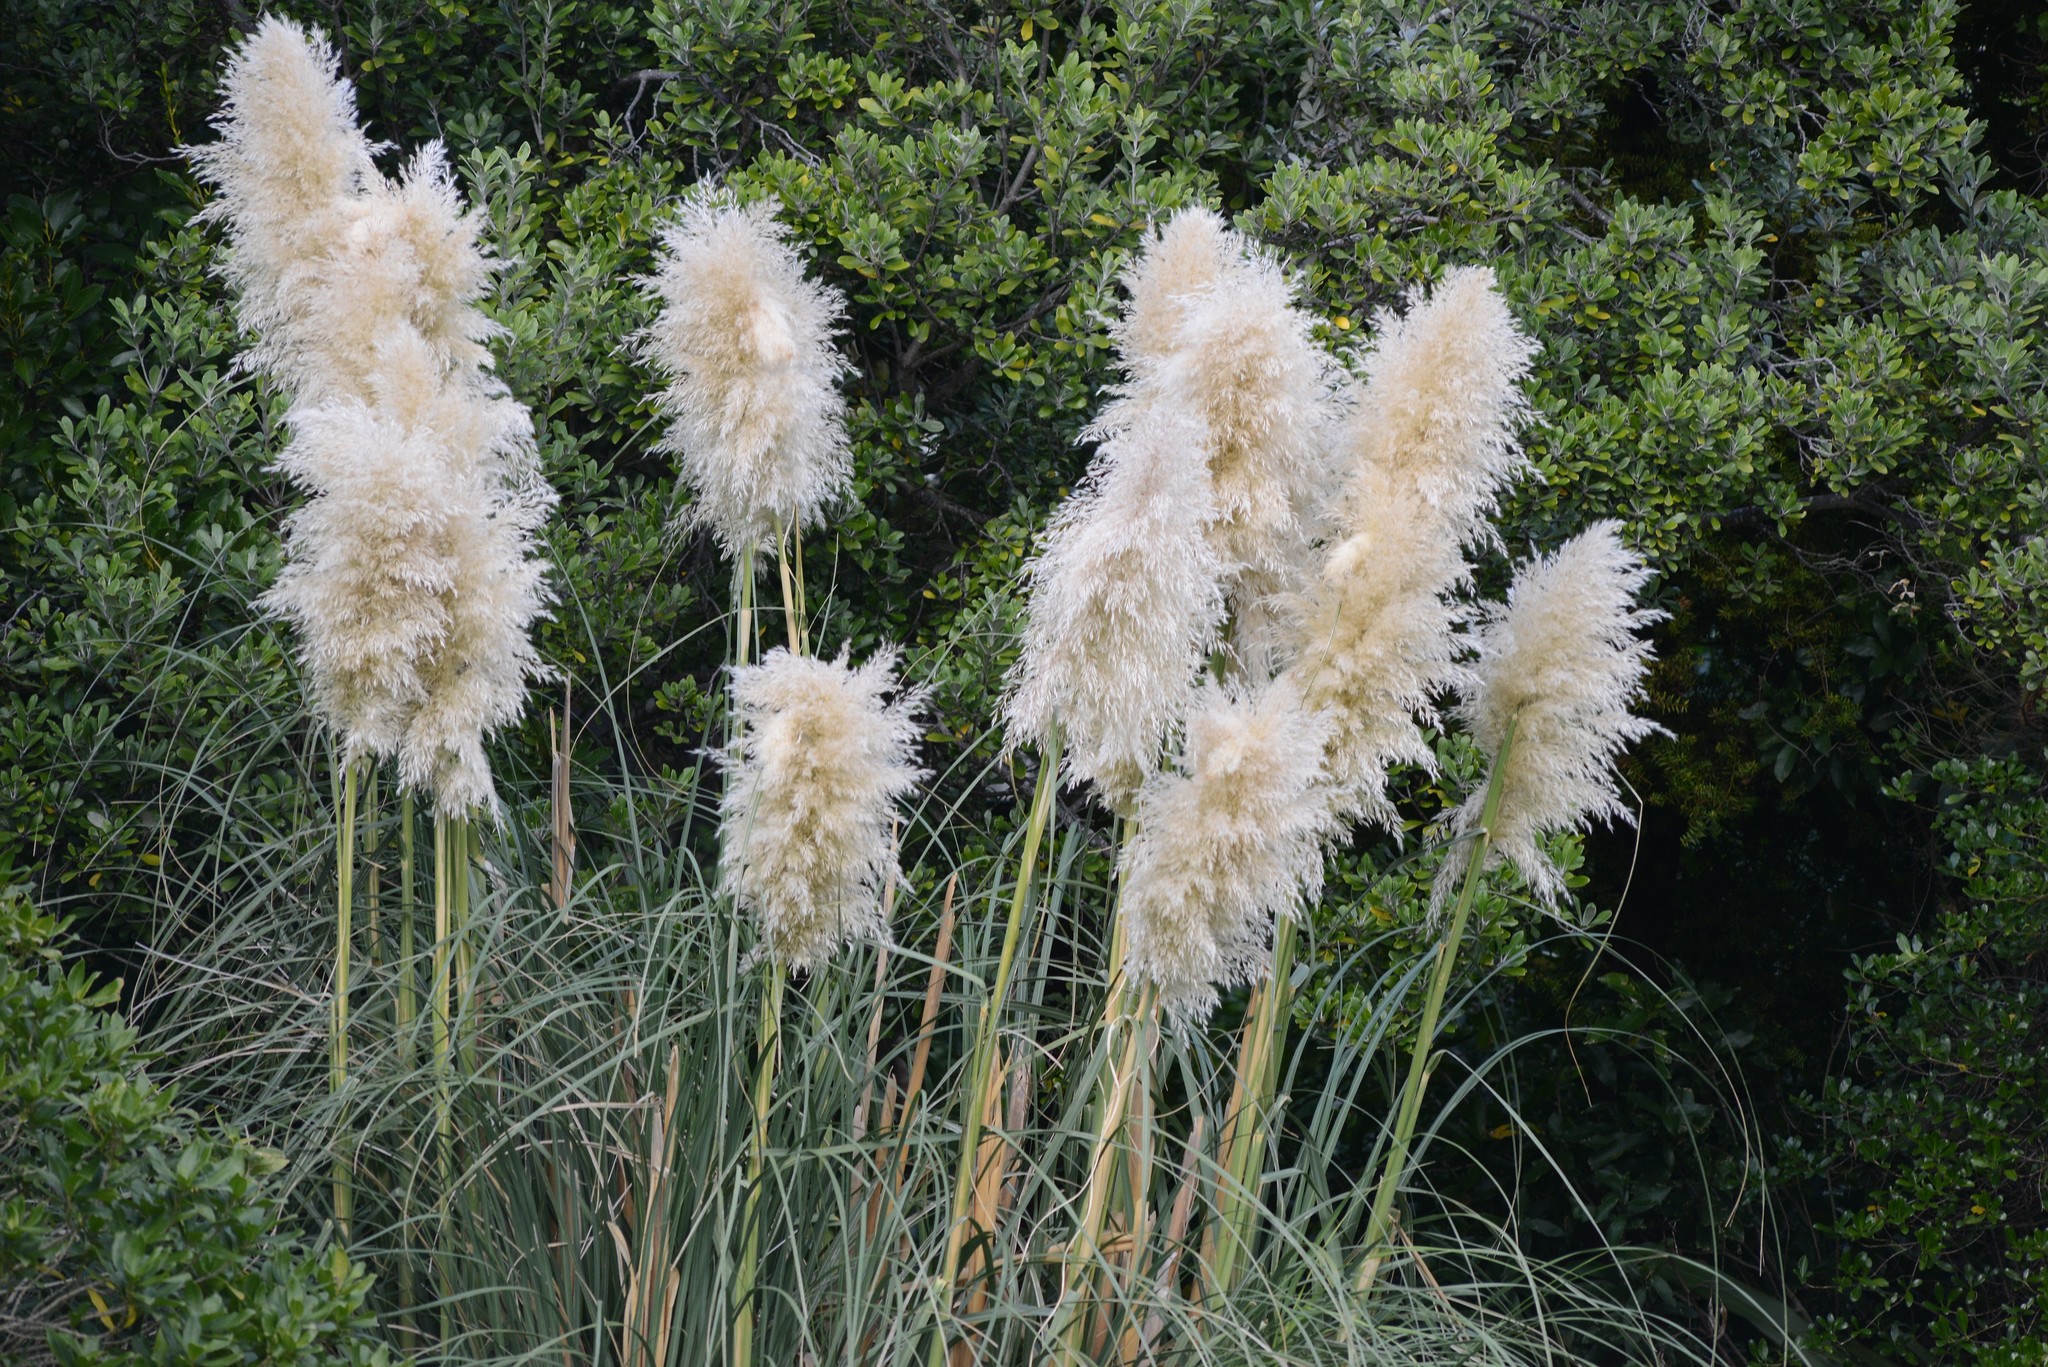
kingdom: Plantae
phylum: Tracheophyta
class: Liliopsida
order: Poales
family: Poaceae
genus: Cortaderia
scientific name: Cortaderia selloana
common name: Uruguayan pampas grass
